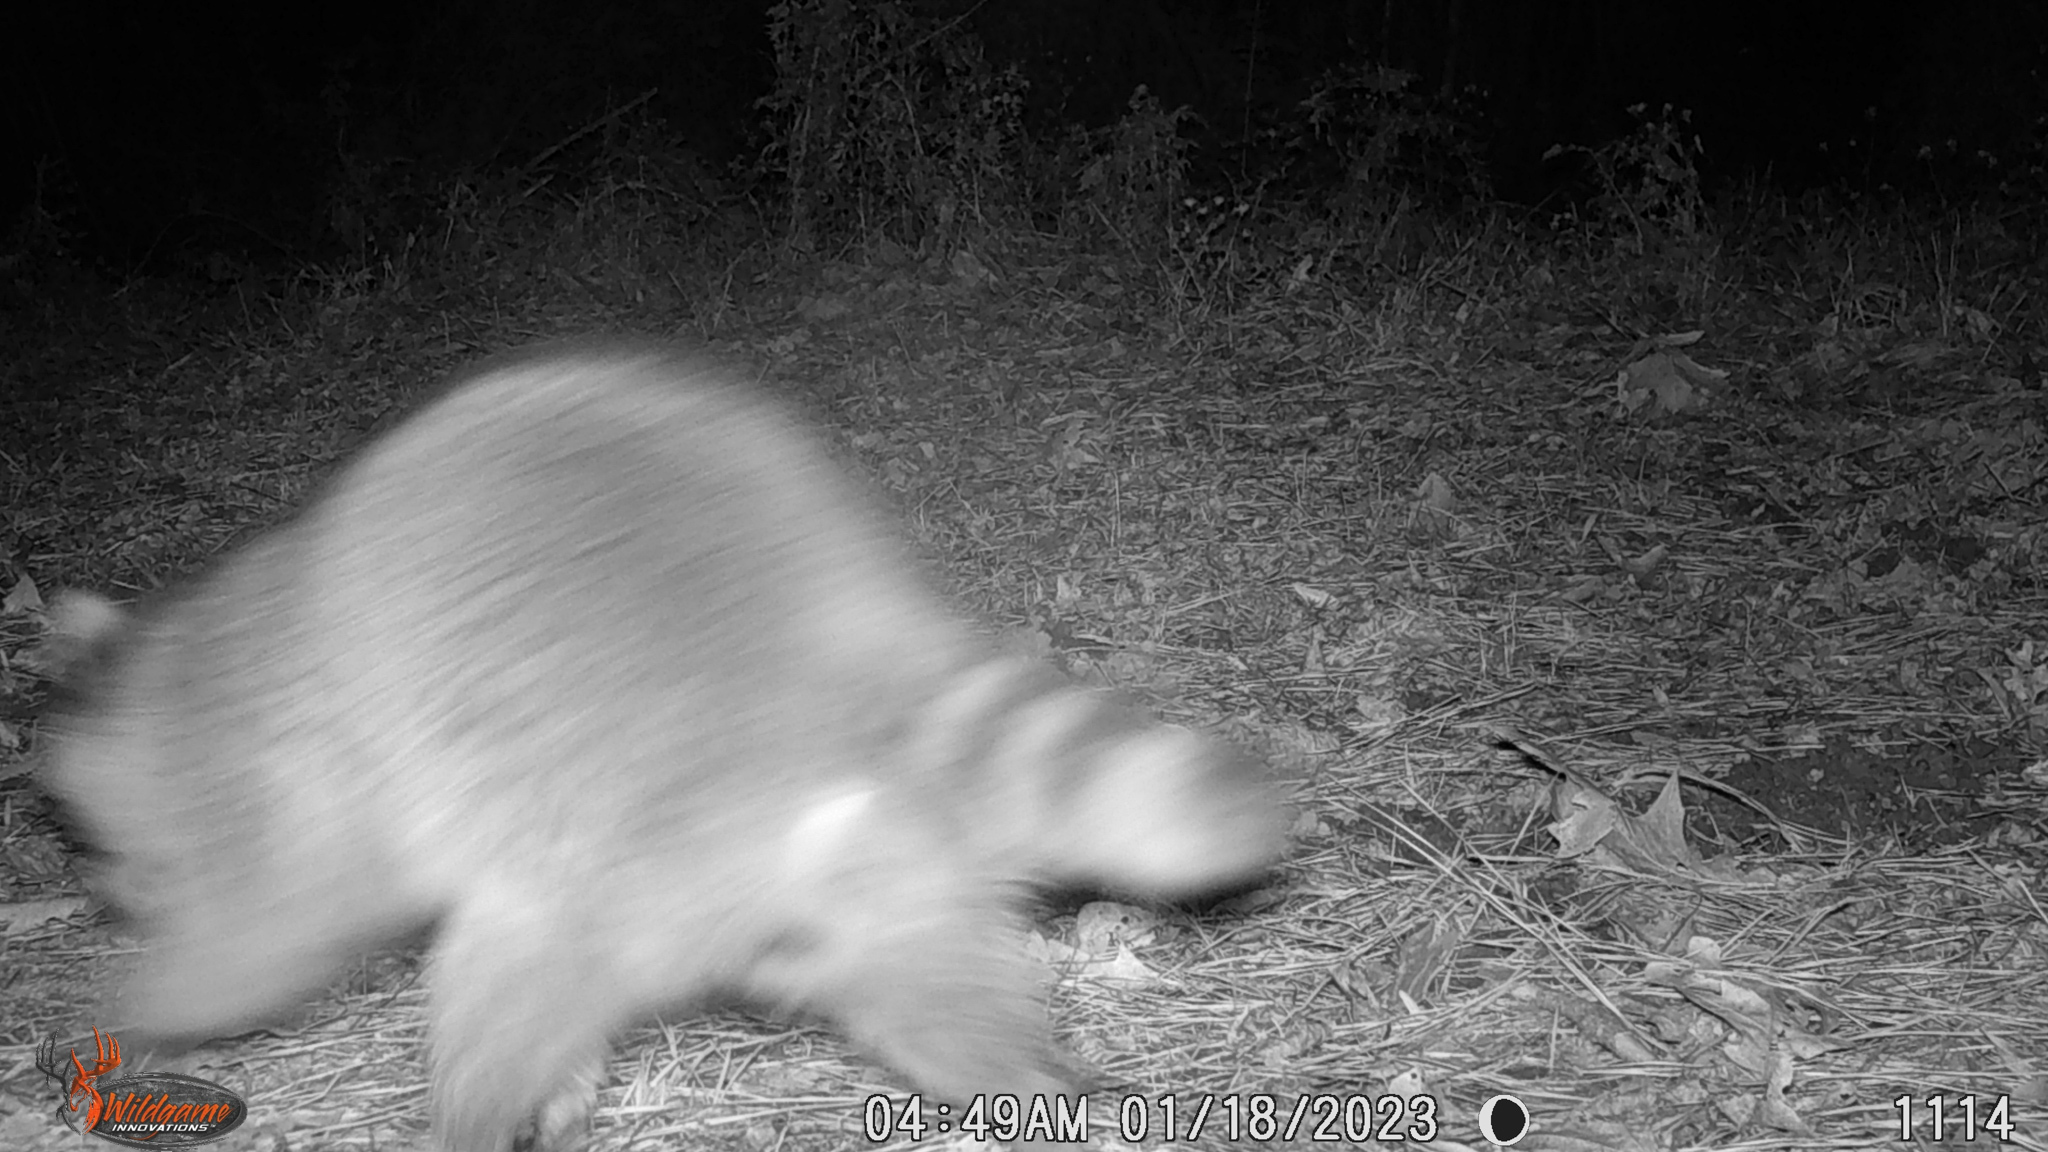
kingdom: Animalia
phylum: Chordata
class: Mammalia
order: Carnivora
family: Procyonidae
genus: Procyon
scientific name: Procyon lotor
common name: Raccoon
